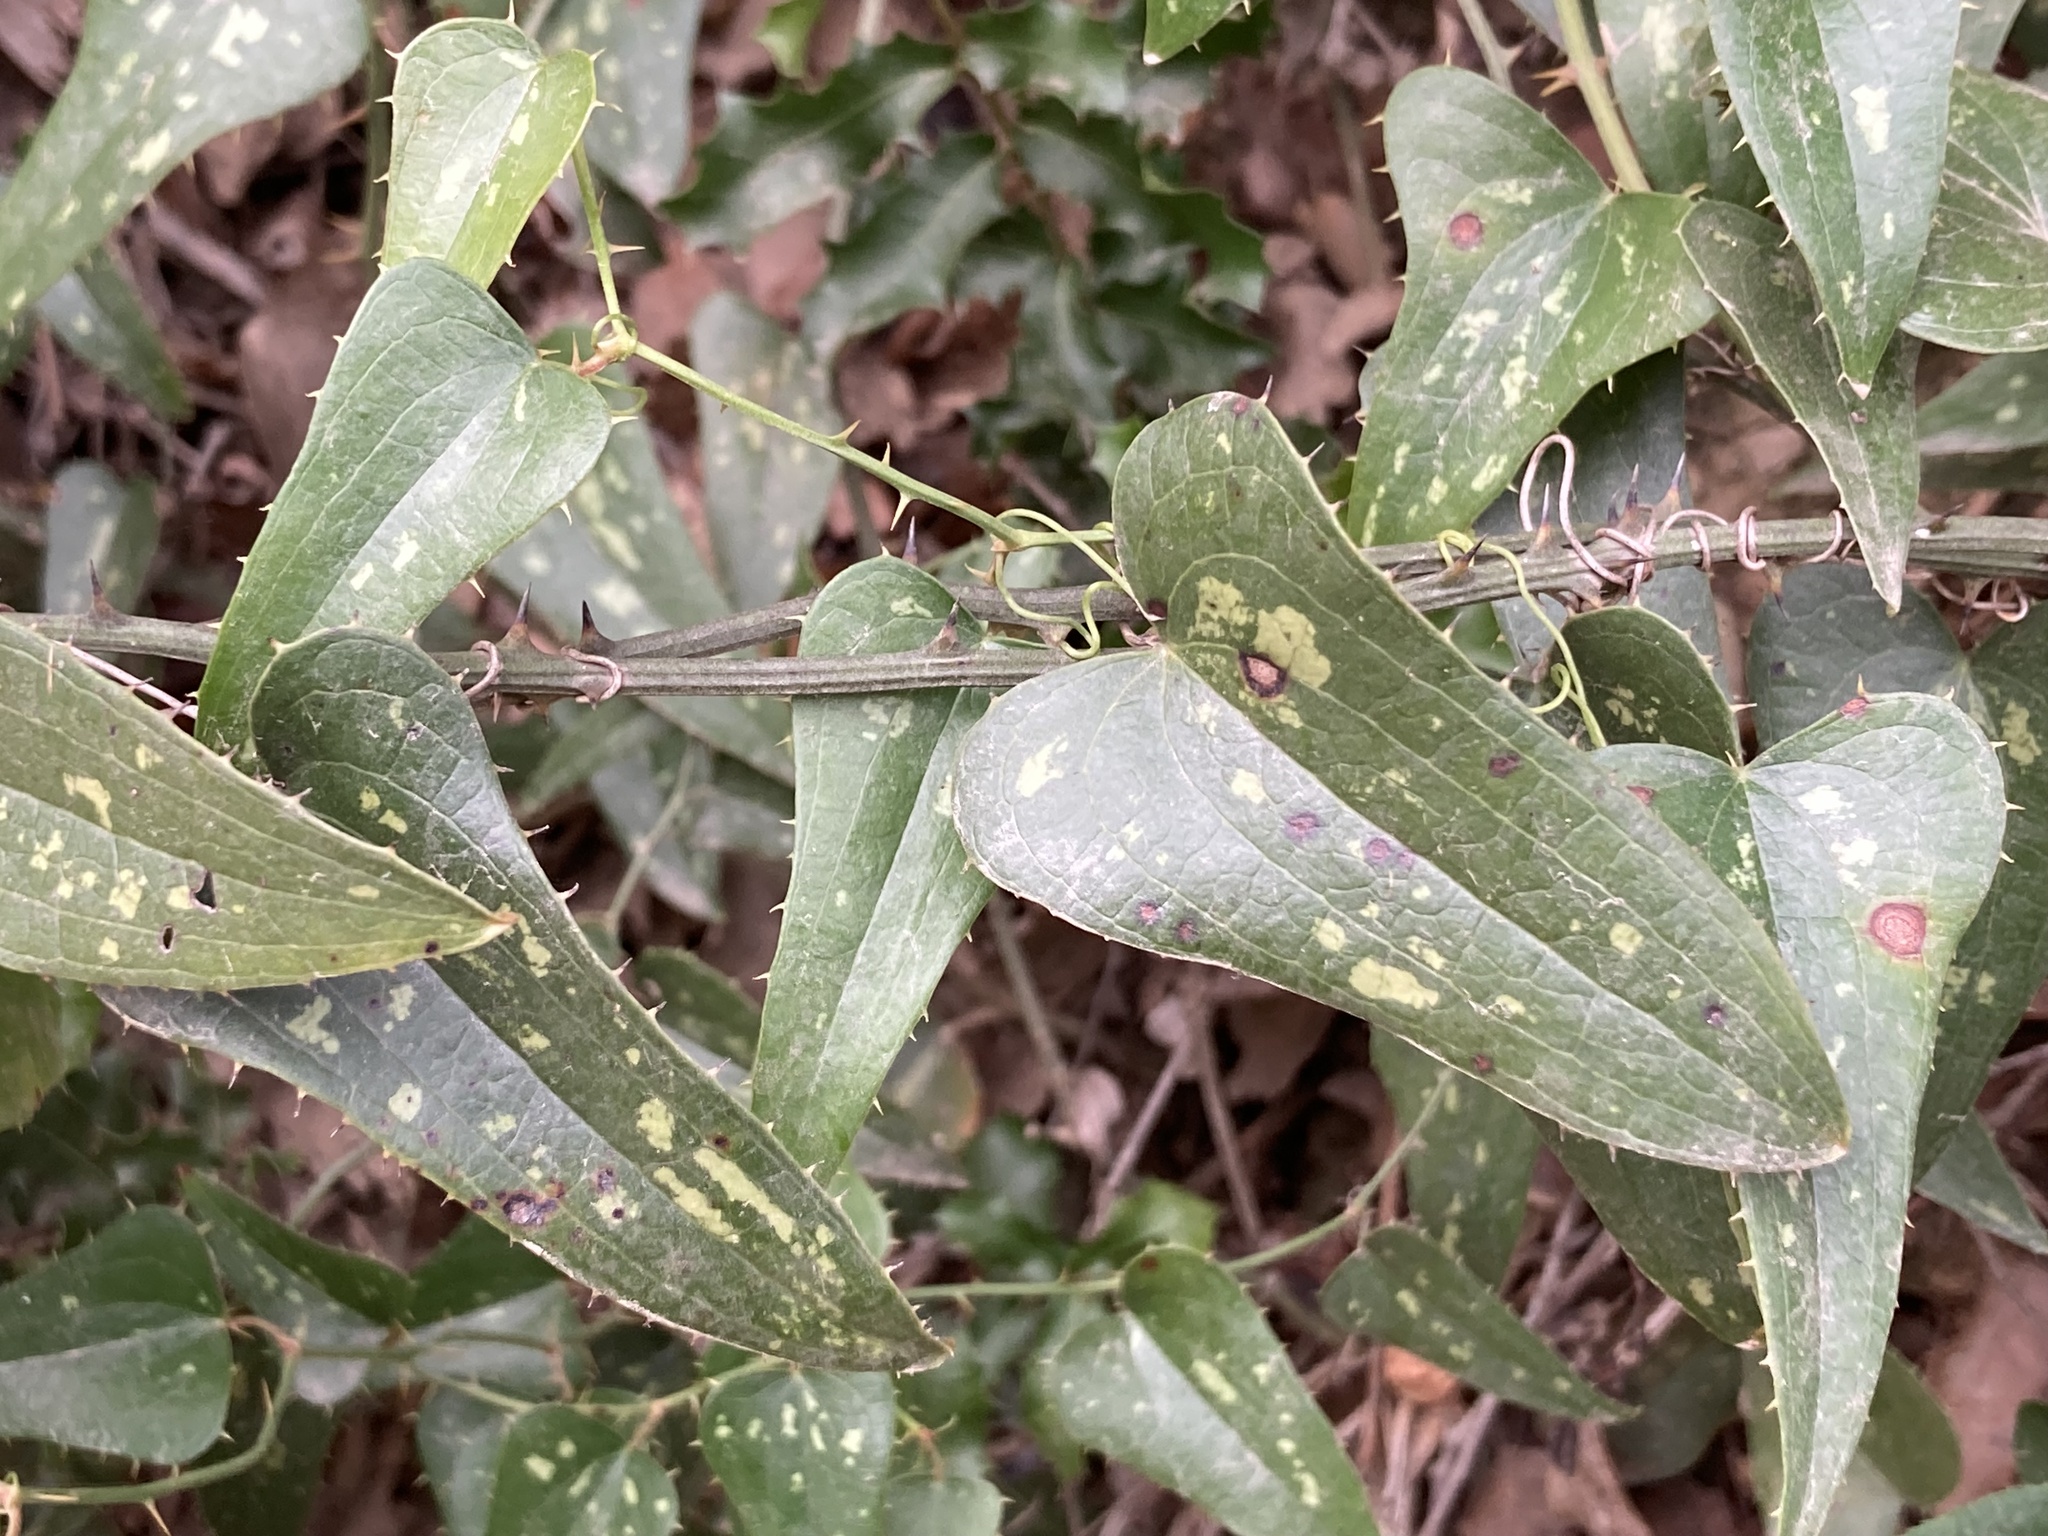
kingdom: Plantae
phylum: Tracheophyta
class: Liliopsida
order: Liliales
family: Smilacaceae
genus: Smilax
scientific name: Smilax aspera
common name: Common smilax
